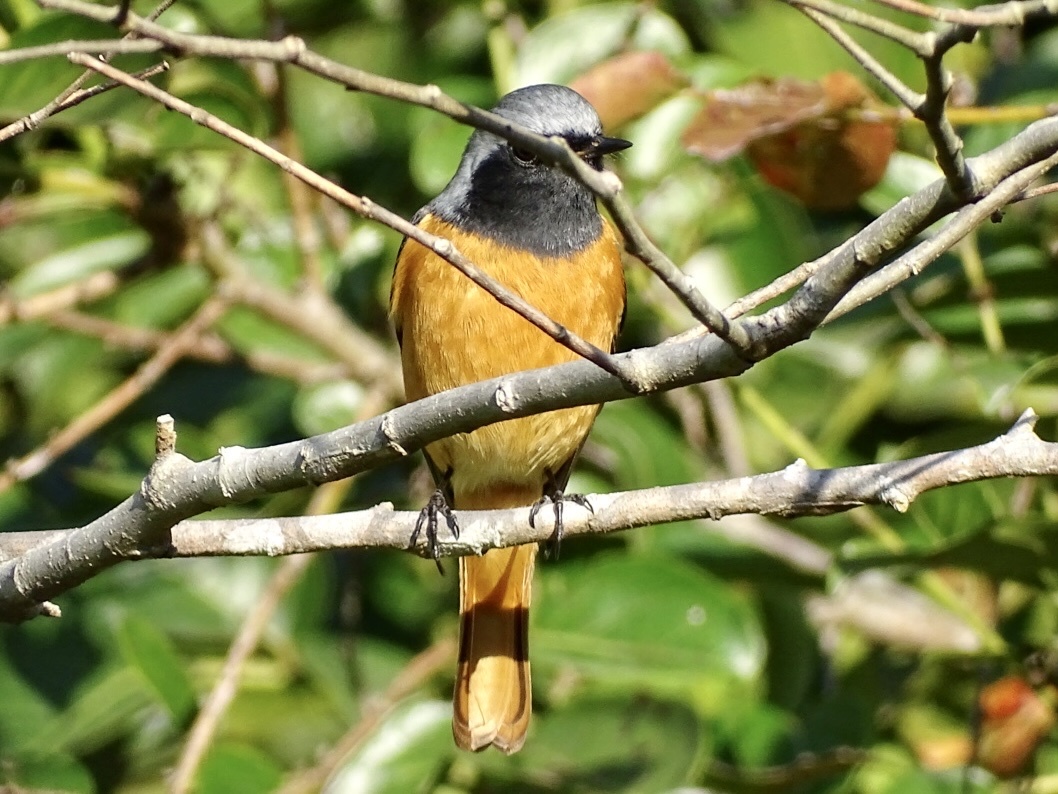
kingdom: Animalia
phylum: Chordata
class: Aves
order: Passeriformes
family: Muscicapidae
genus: Phoenicurus
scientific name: Phoenicurus auroreus
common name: Daurian redstart
